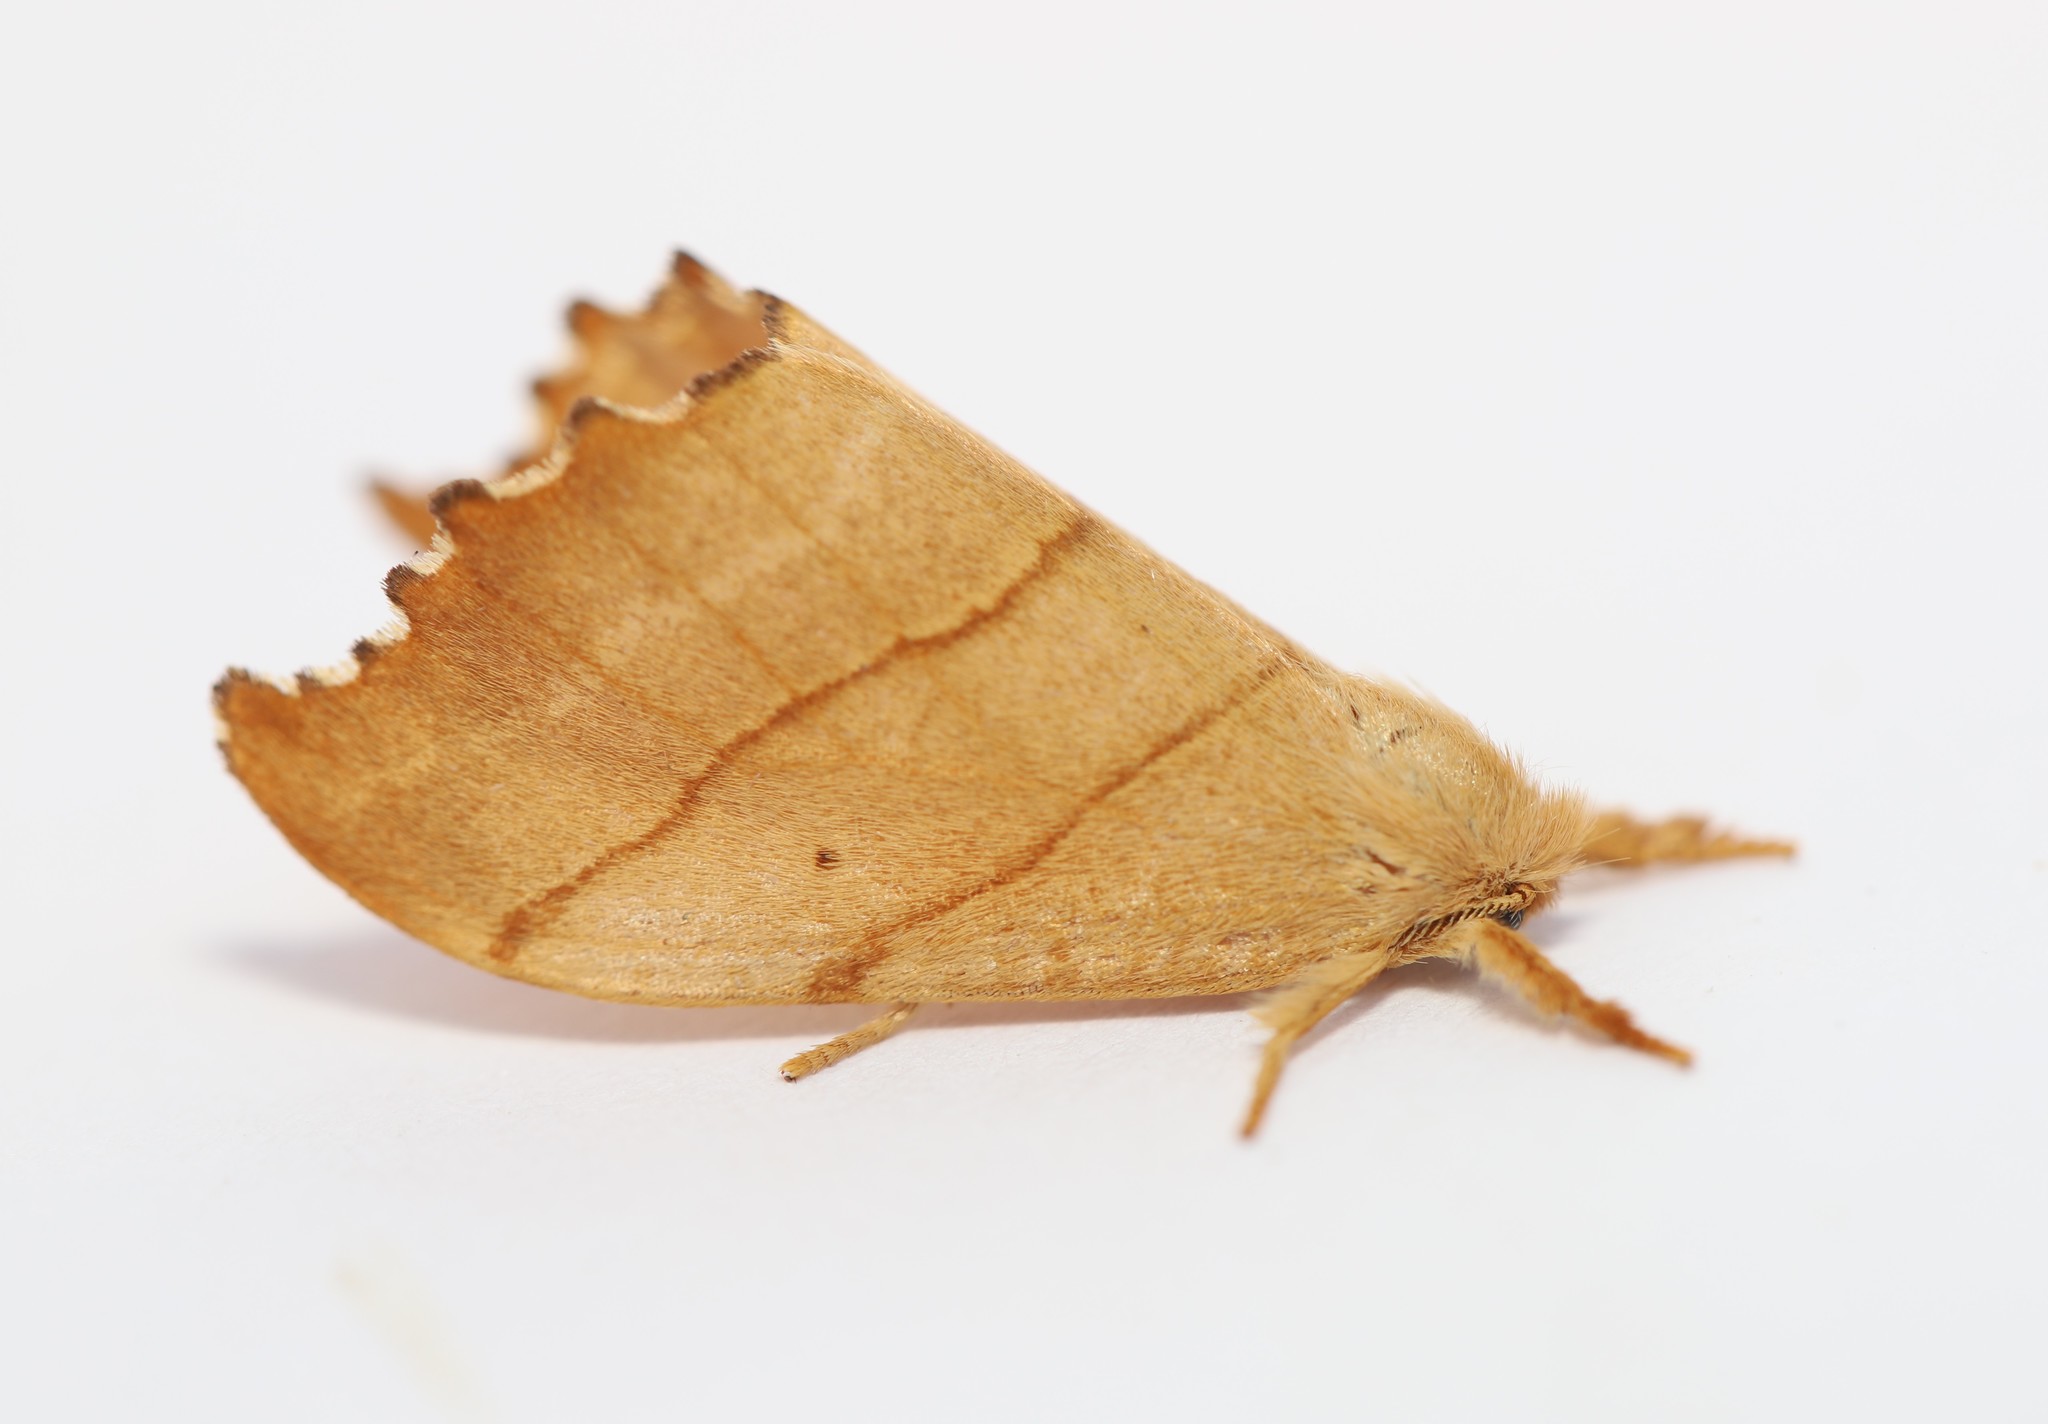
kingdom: Animalia
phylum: Arthropoda
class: Insecta
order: Lepidoptera
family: Drepanidae
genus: Falcaria
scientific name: Falcaria bilineata
